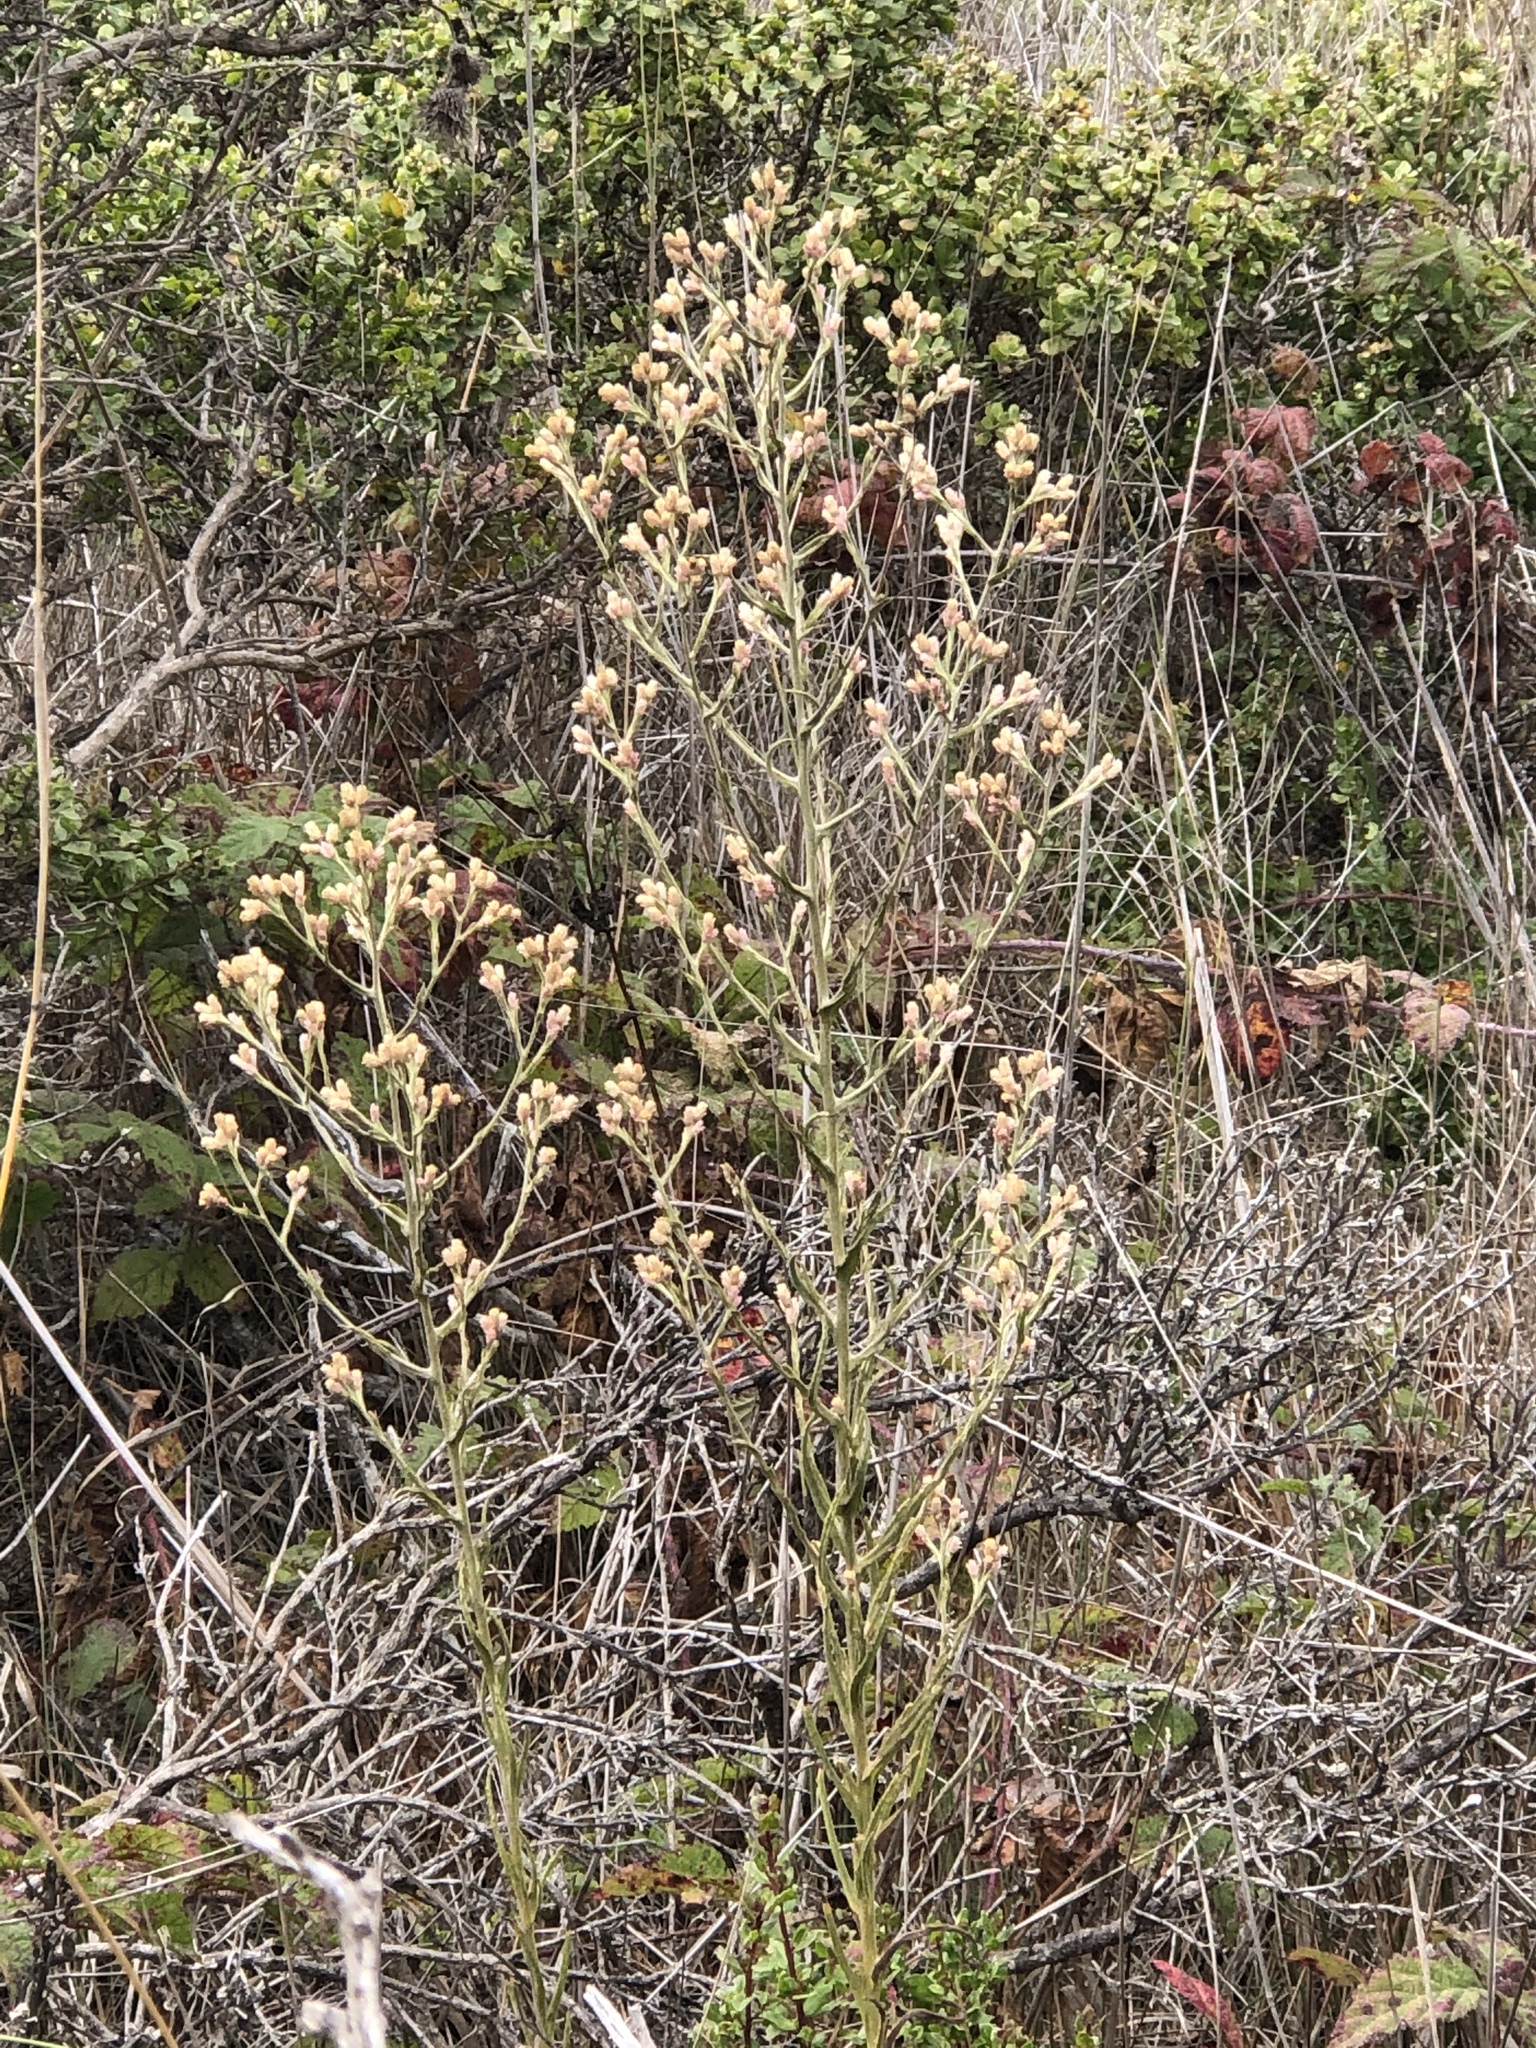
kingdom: Plantae
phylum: Tracheophyta
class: Magnoliopsida
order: Asterales
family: Asteraceae
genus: Pseudognaphalium
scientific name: Pseudognaphalium ramosissimum
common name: Pink rabbit-tobacco
